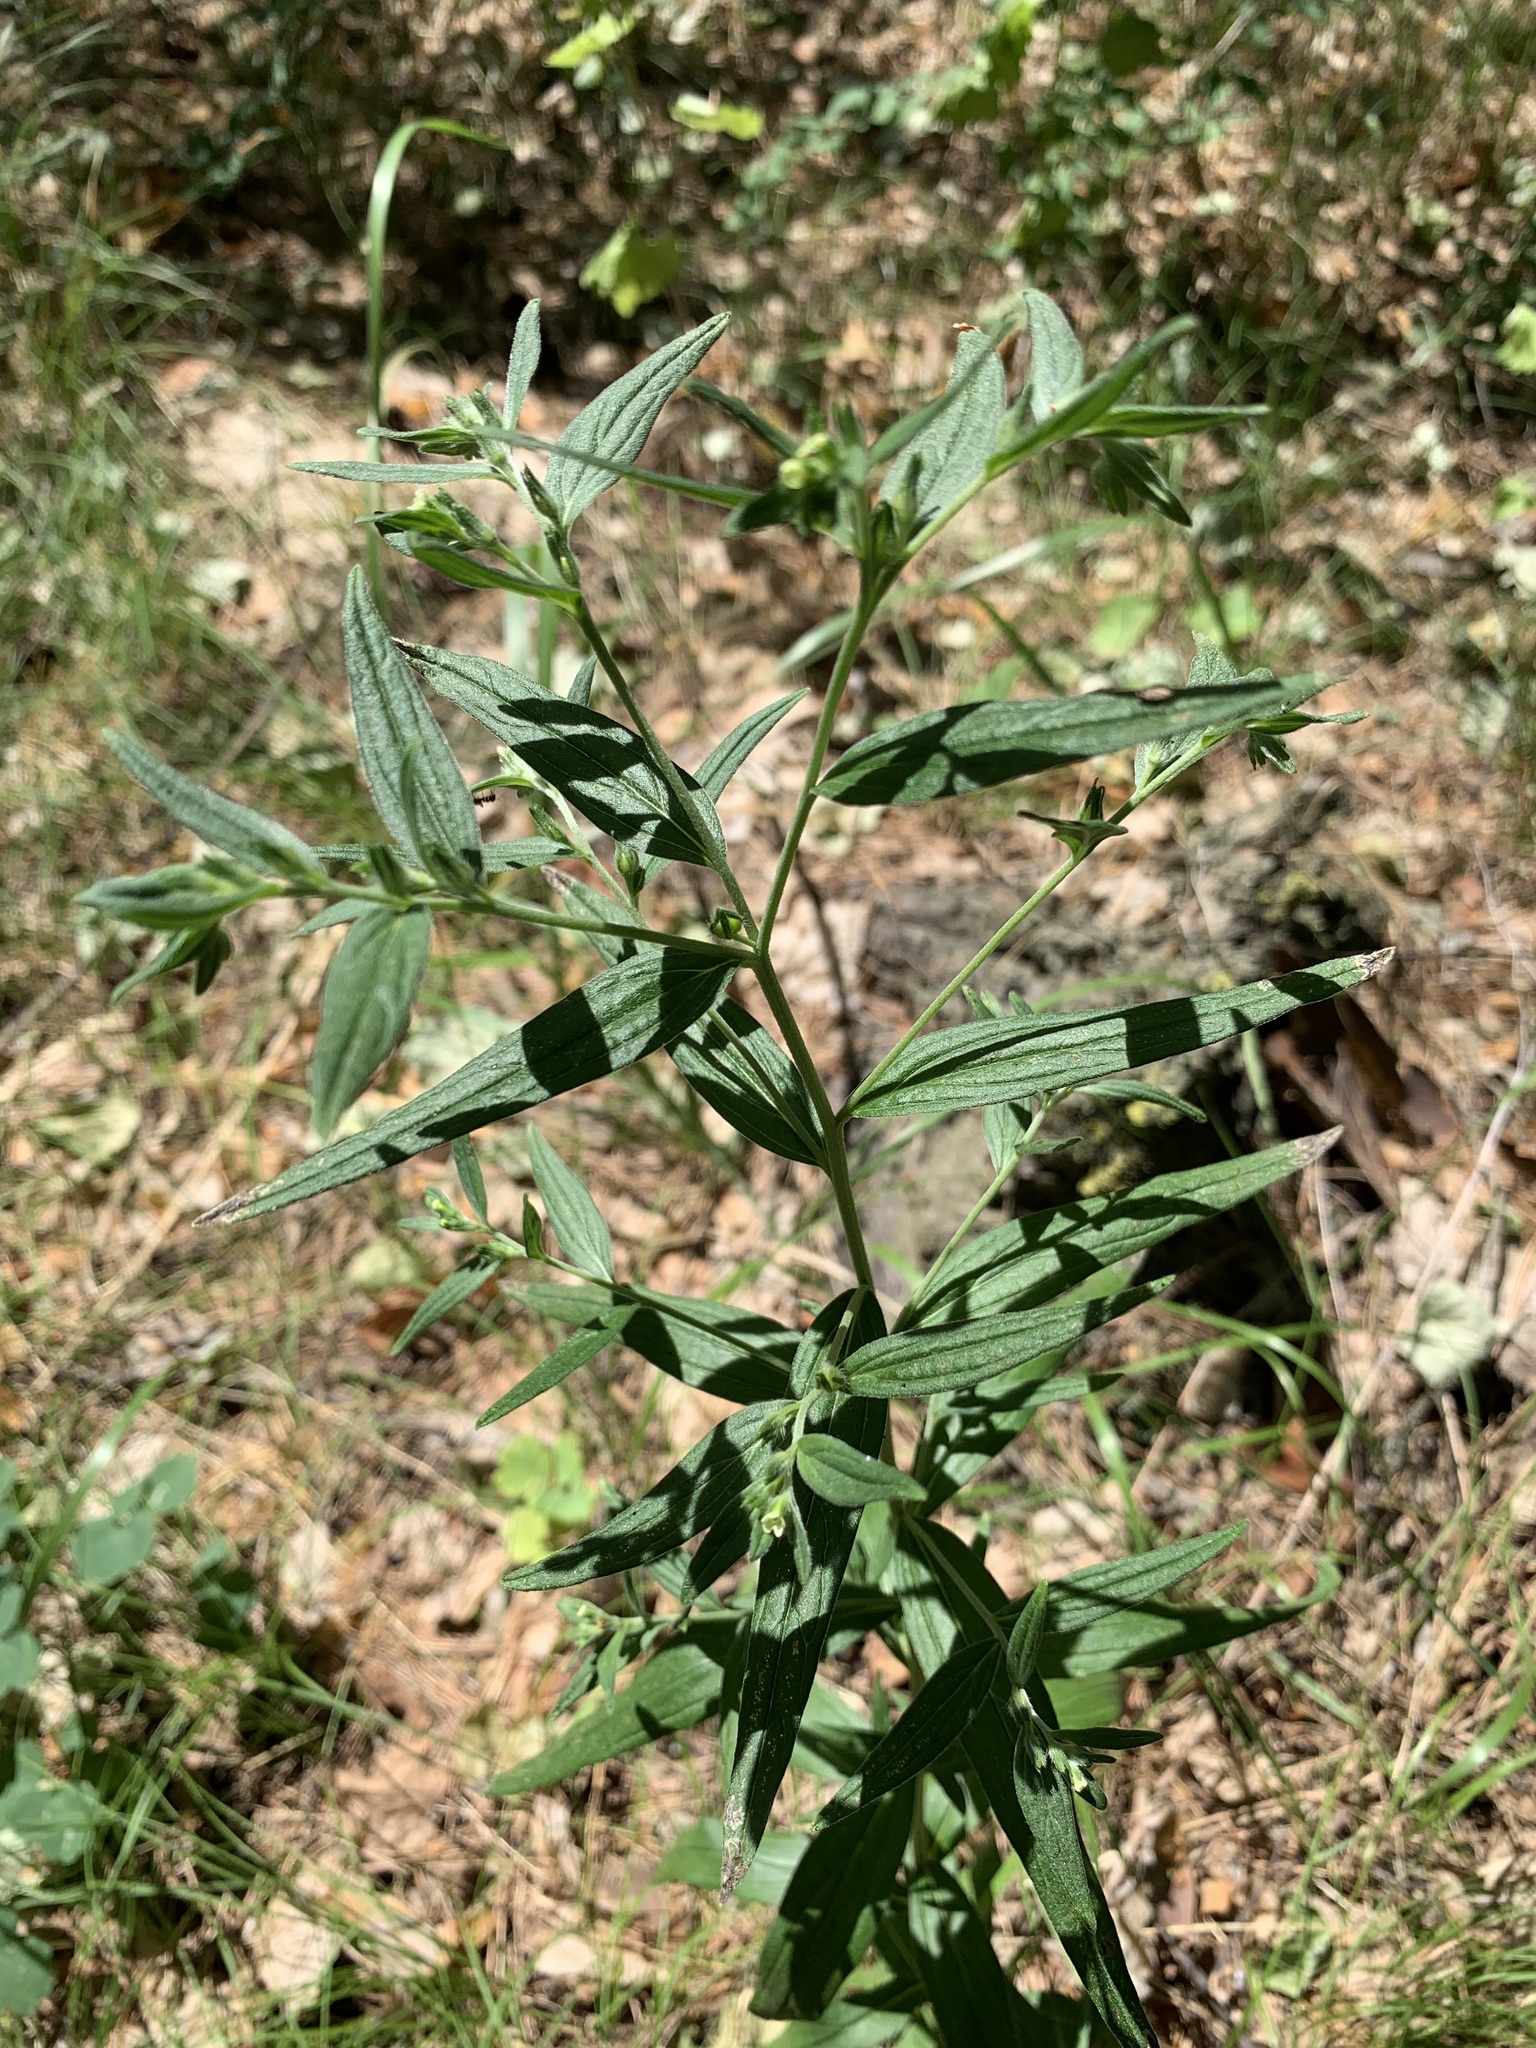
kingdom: Plantae
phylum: Tracheophyta
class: Magnoliopsida
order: Boraginales
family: Boraginaceae
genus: Lithospermum
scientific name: Lithospermum officinale
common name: Common gromwell
